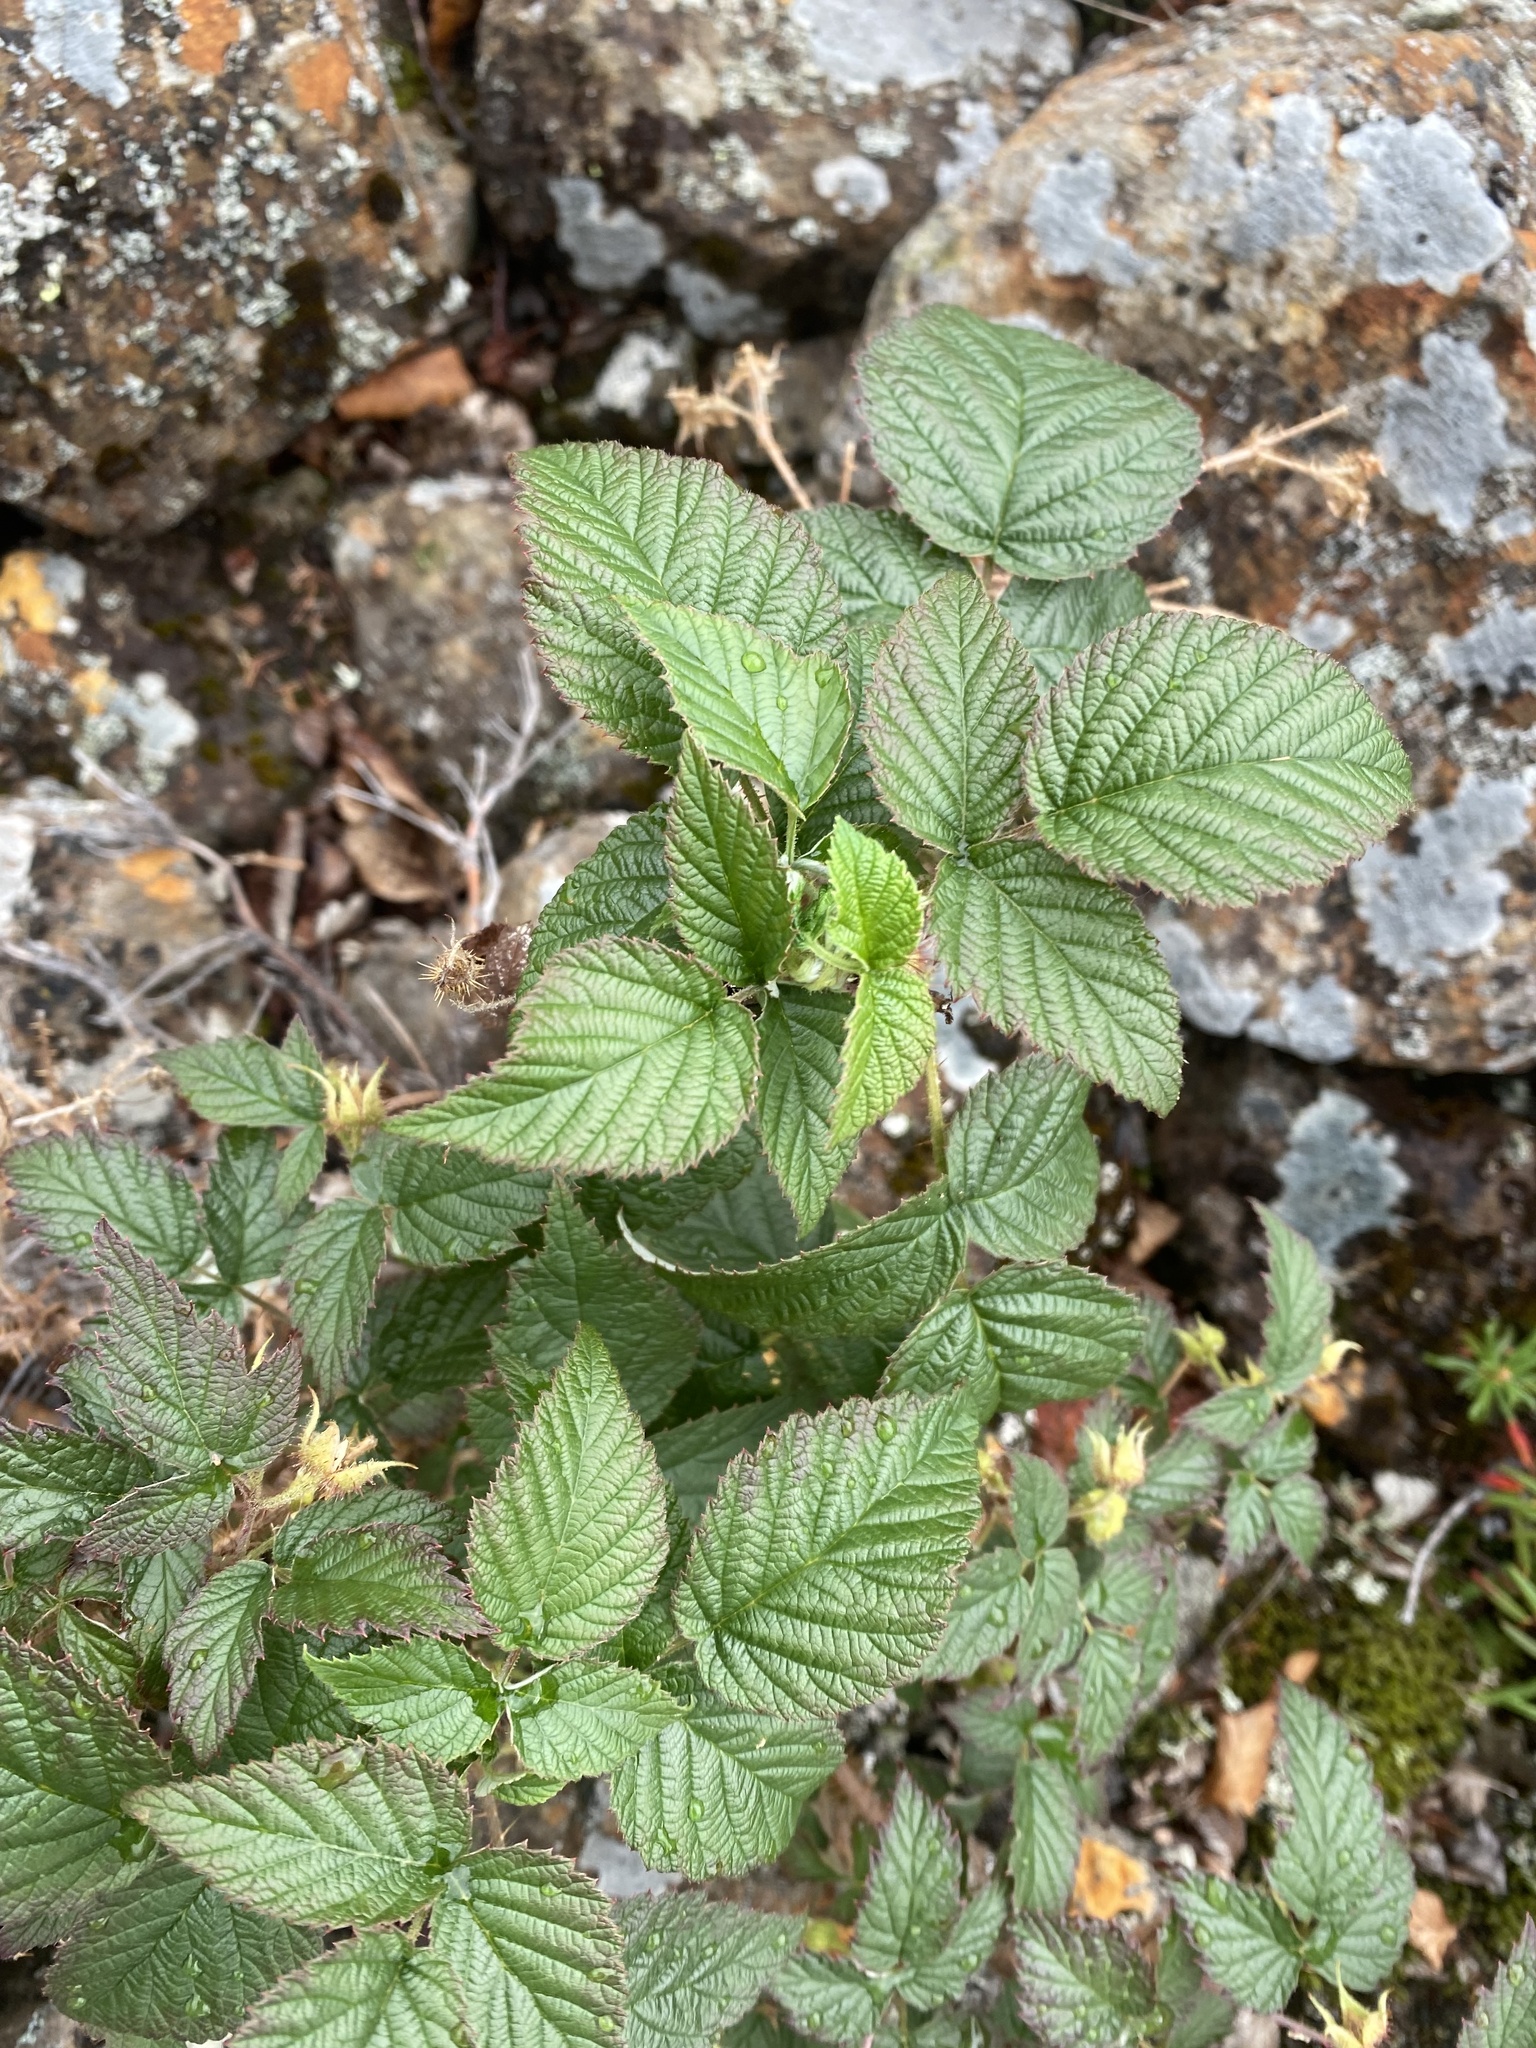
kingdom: Plantae
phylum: Tracheophyta
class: Polypodiopsida
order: Polypodiales
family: Cystopteridaceae
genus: Gymnocarpium
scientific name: Gymnocarpium jessoense
